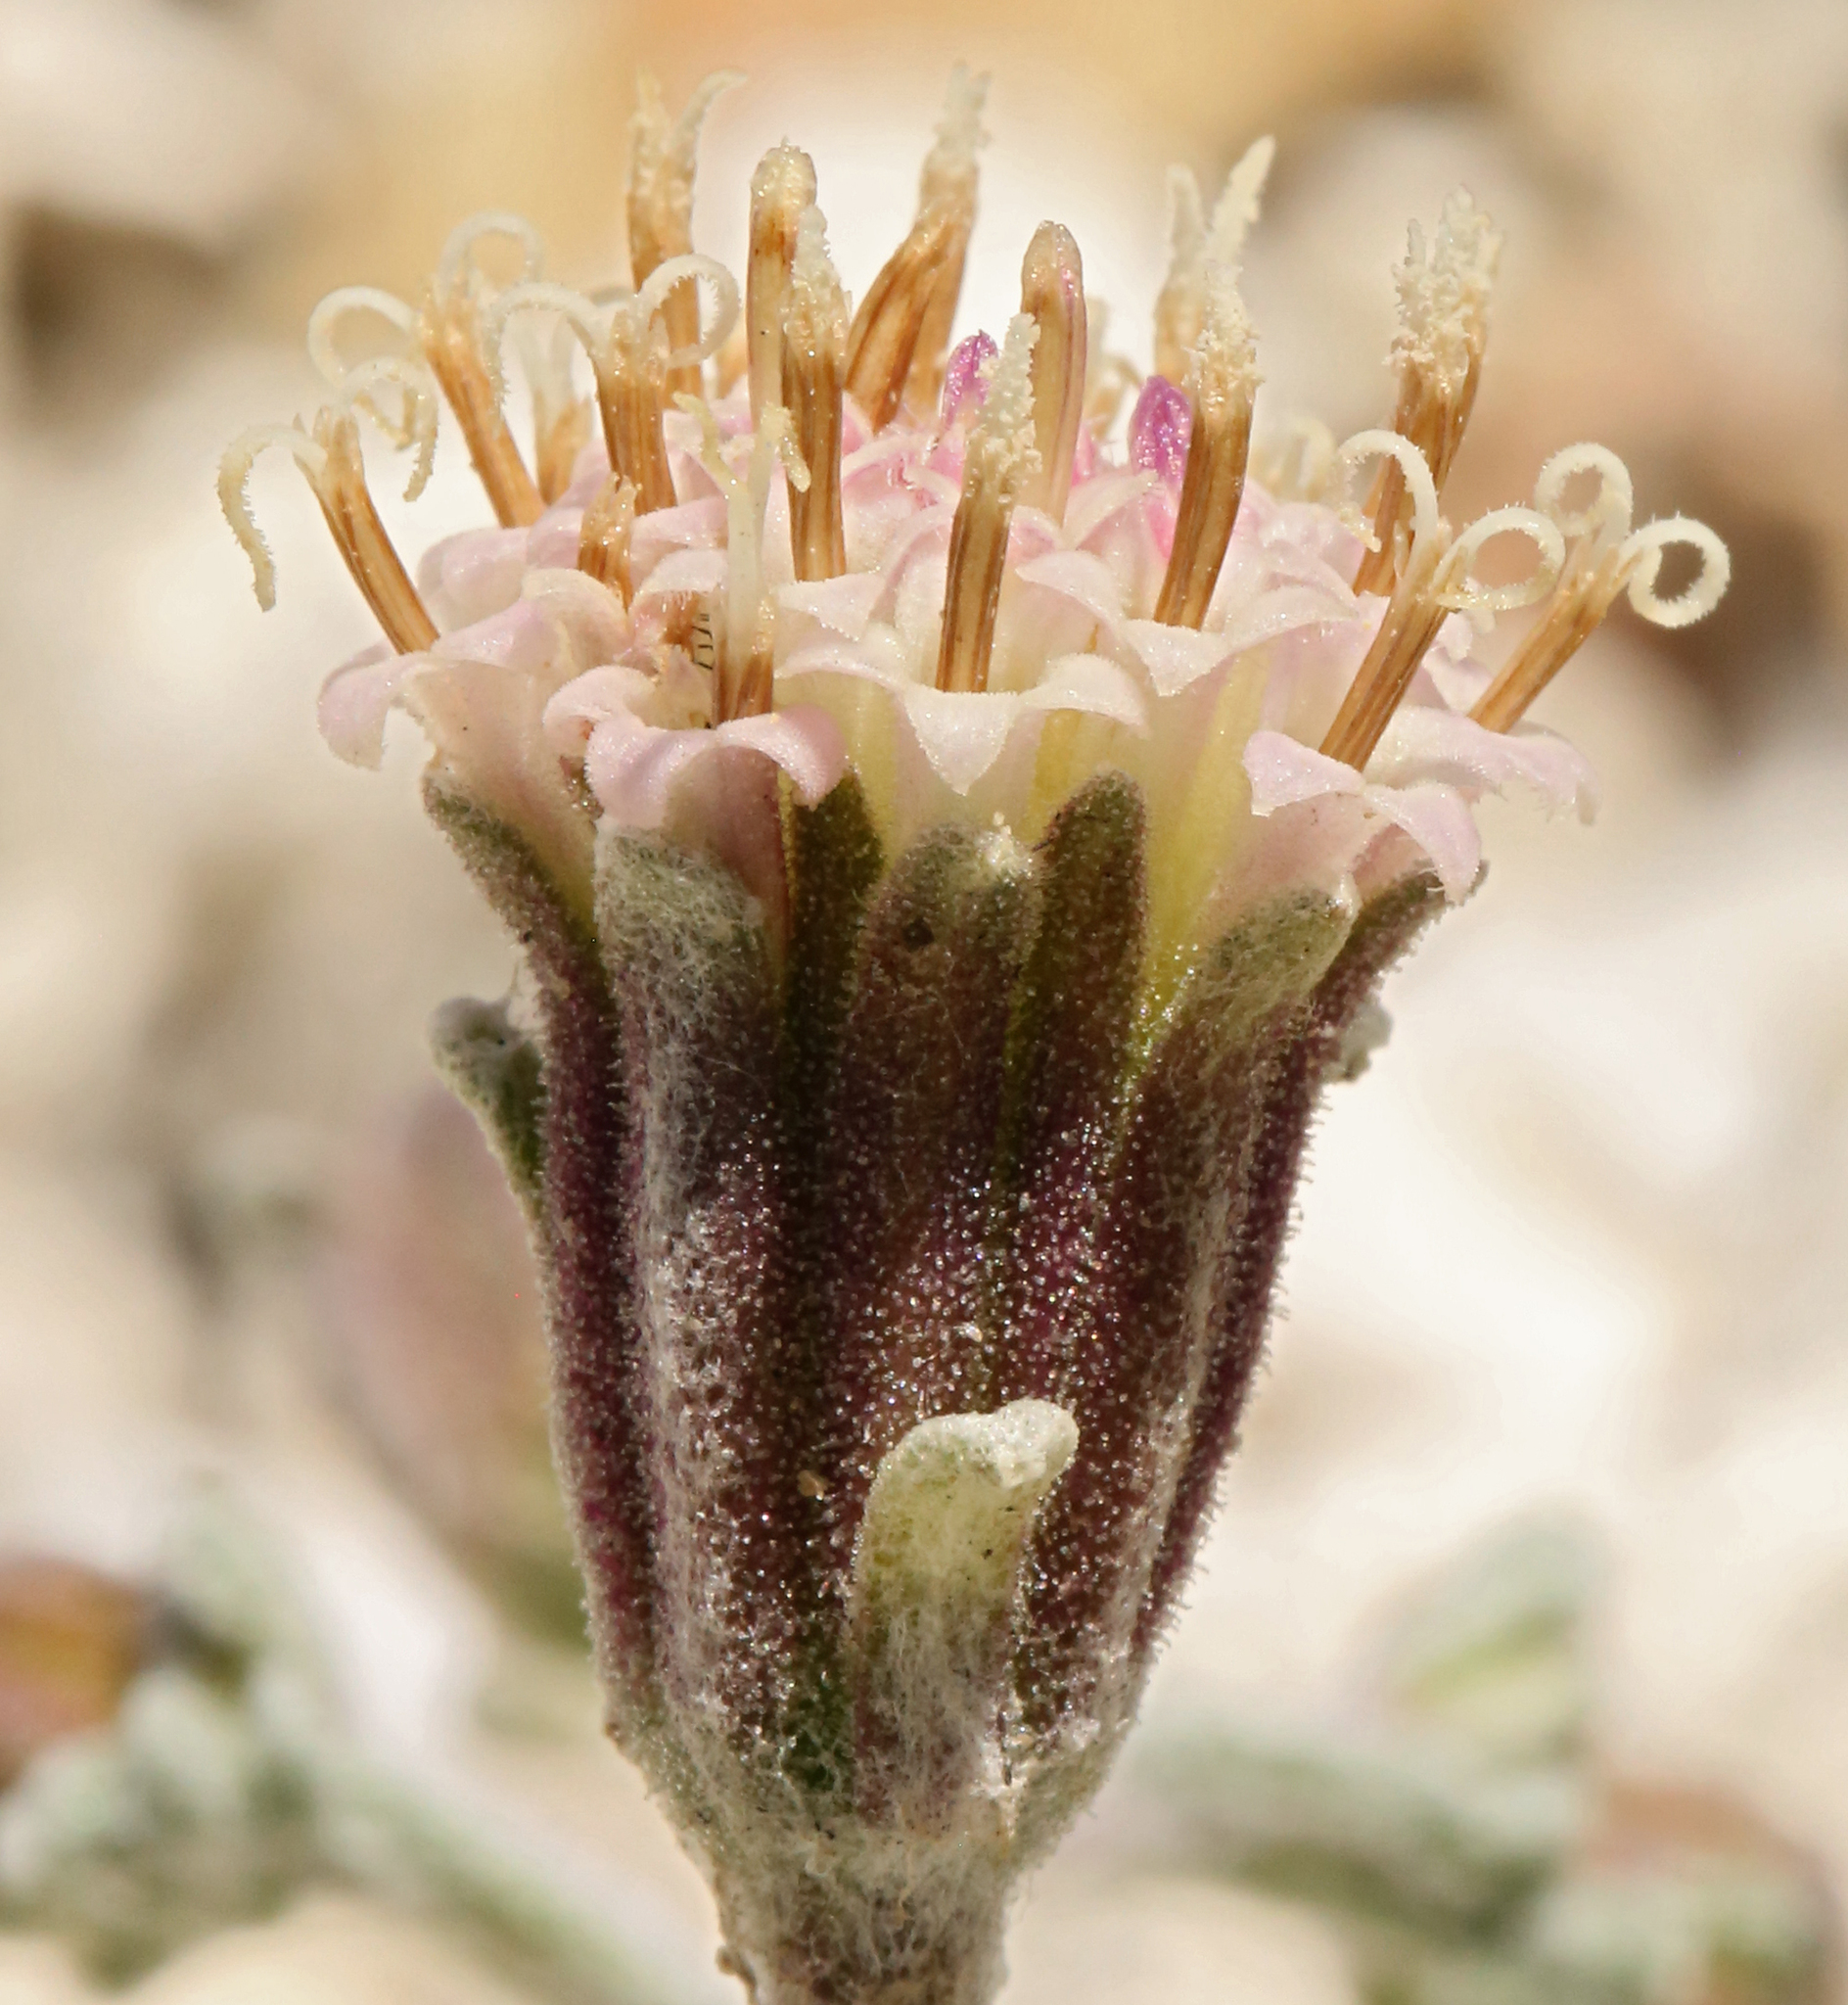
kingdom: Plantae
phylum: Tracheophyta
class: Magnoliopsida
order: Asterales
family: Asteraceae
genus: Chaenactis
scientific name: Chaenactis douglasii
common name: Hoary pincushion
